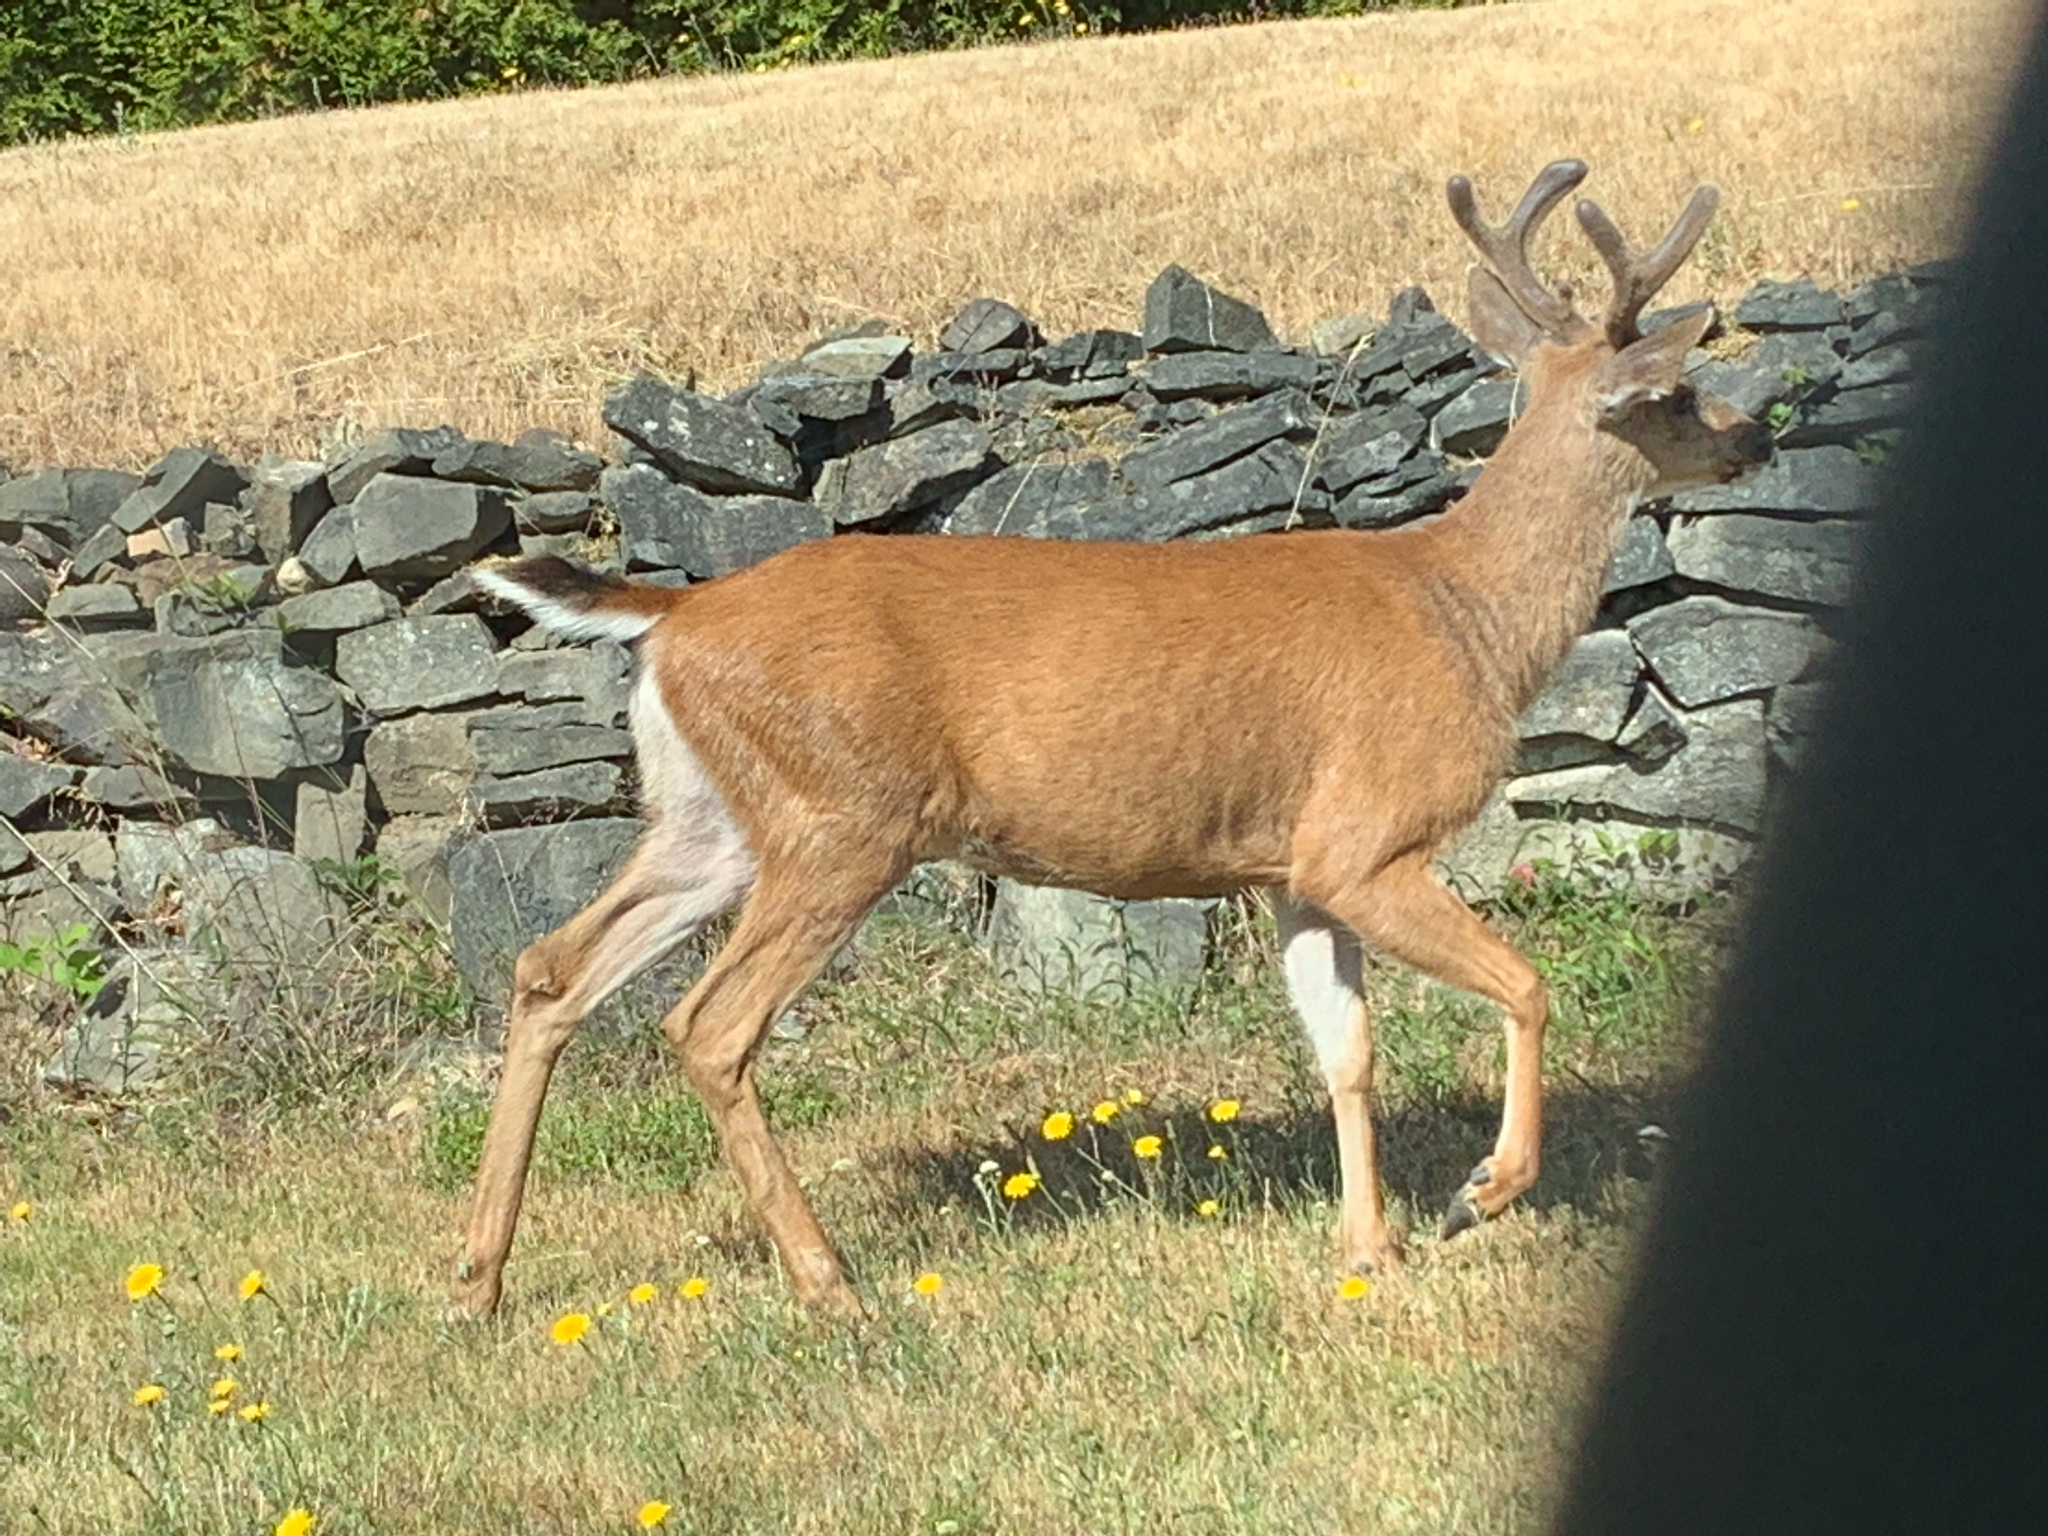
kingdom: Animalia
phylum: Chordata
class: Mammalia
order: Artiodactyla
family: Cervidae
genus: Odocoileus
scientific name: Odocoileus hemionus
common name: Mule deer
